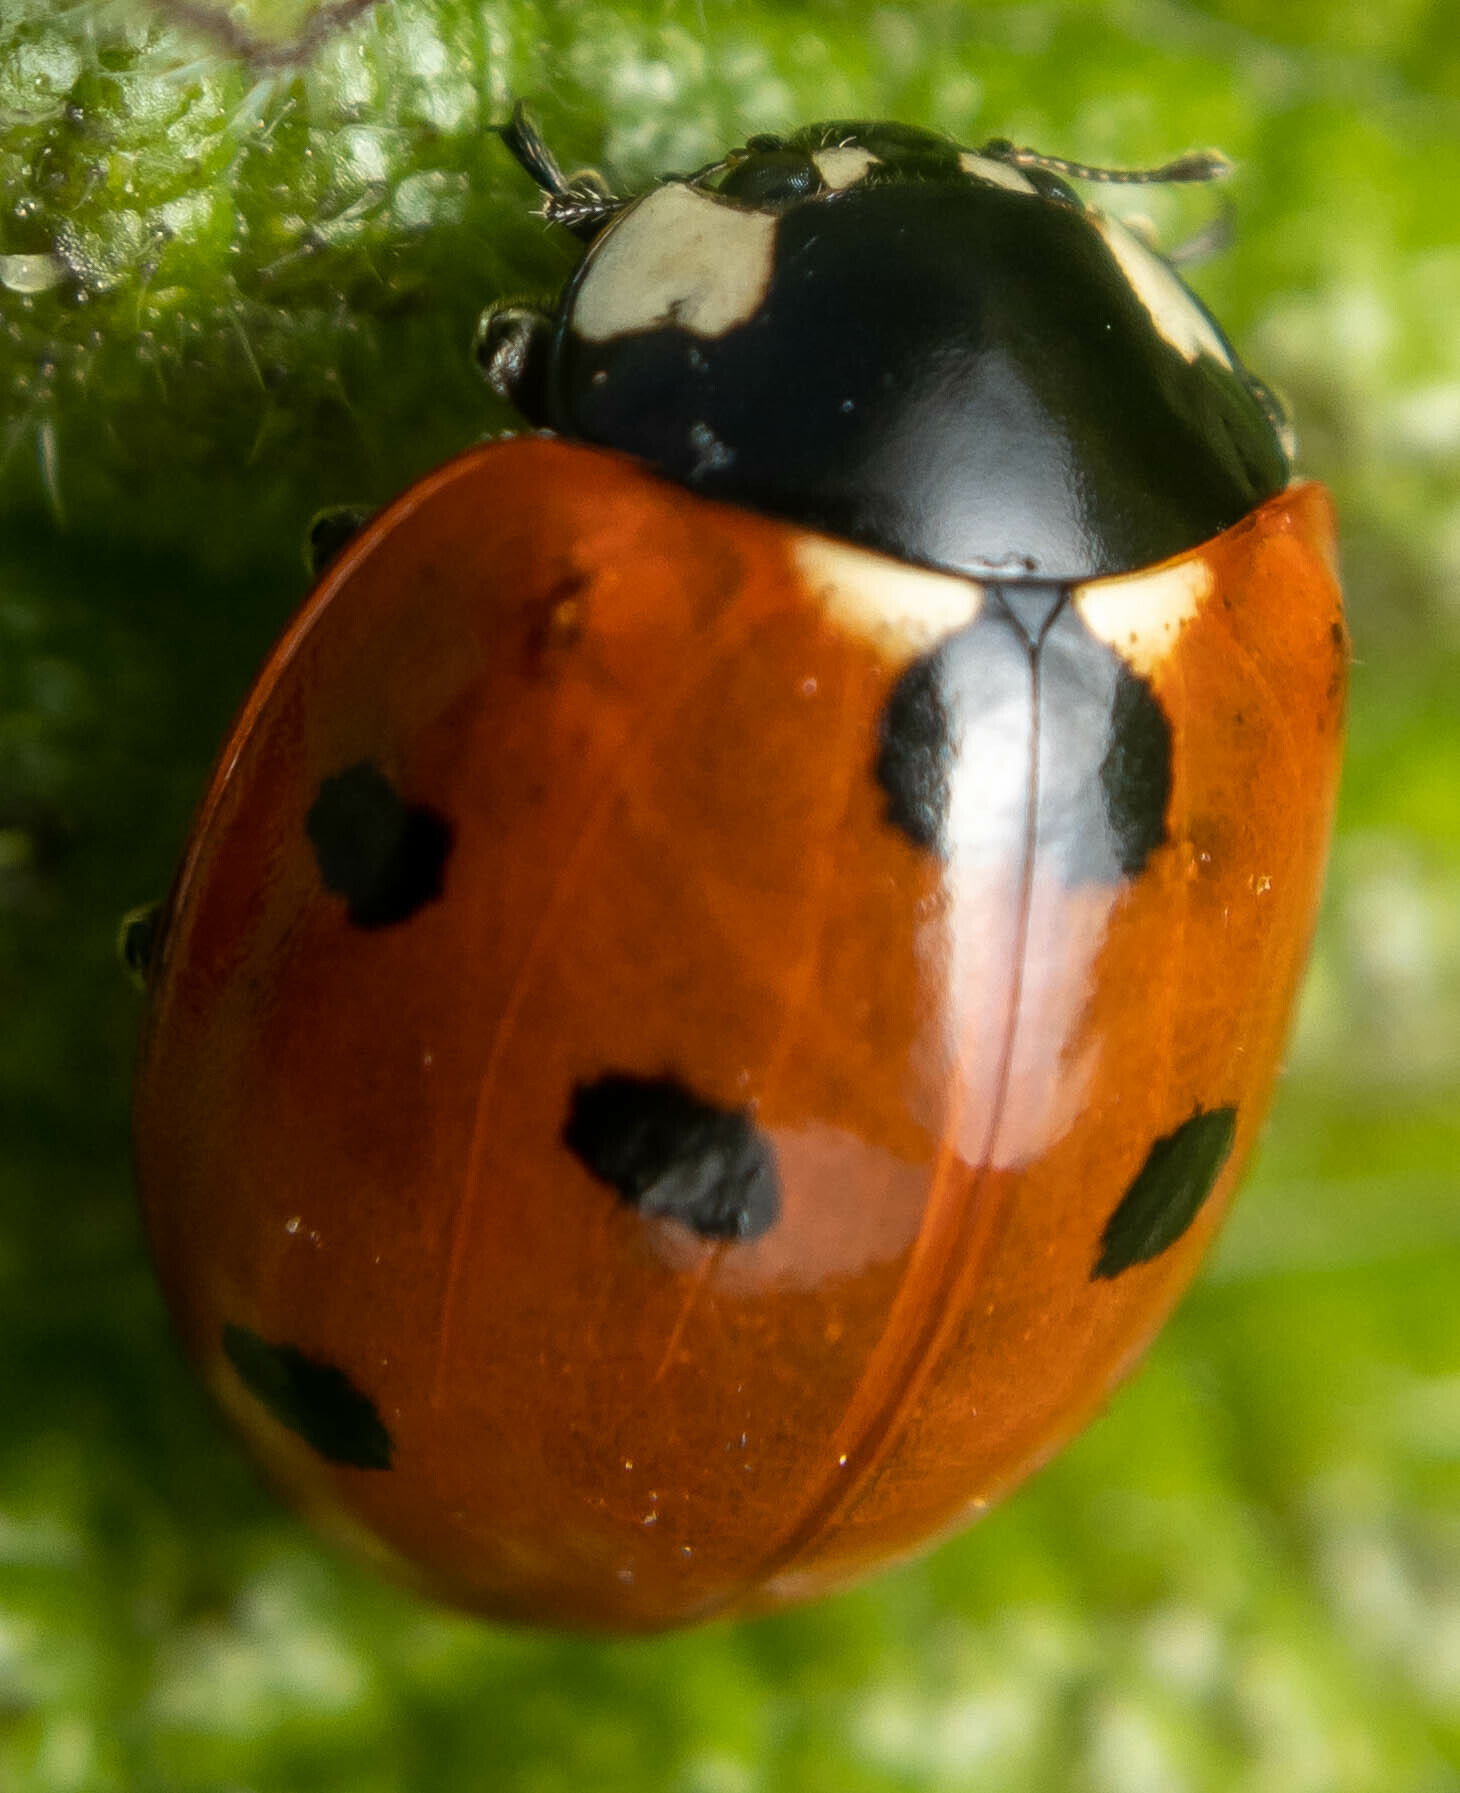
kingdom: Animalia
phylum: Arthropoda
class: Insecta
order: Coleoptera
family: Coccinellidae
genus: Coccinella
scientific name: Coccinella septempunctata
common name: Sevenspotted lady beetle
